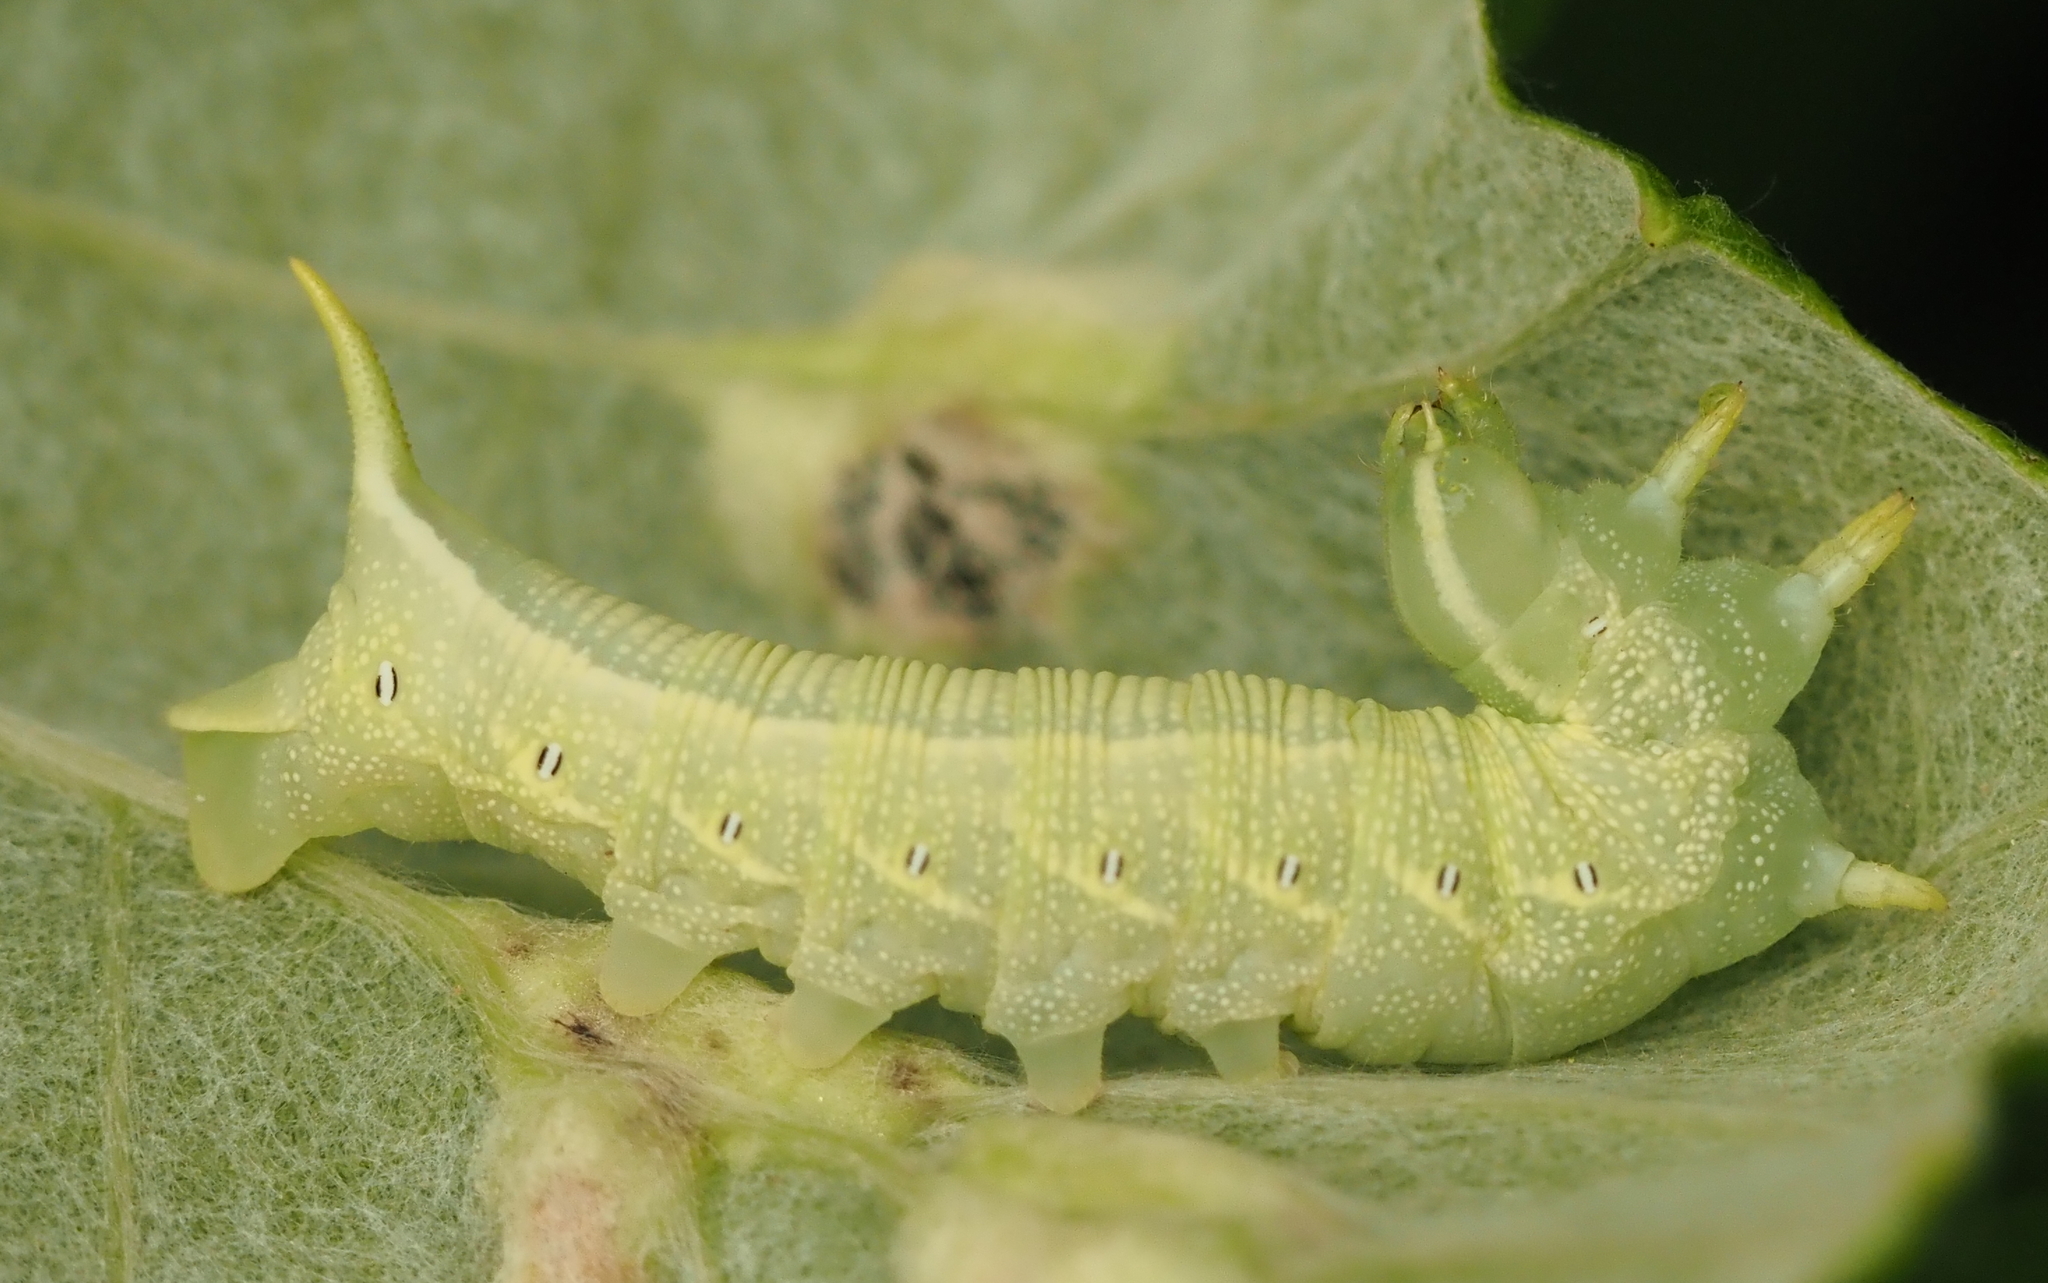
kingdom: Animalia
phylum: Arthropoda
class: Insecta
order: Lepidoptera
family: Sphingidae
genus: Deidamia
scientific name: Deidamia inscriptum
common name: Lettered sphinx
